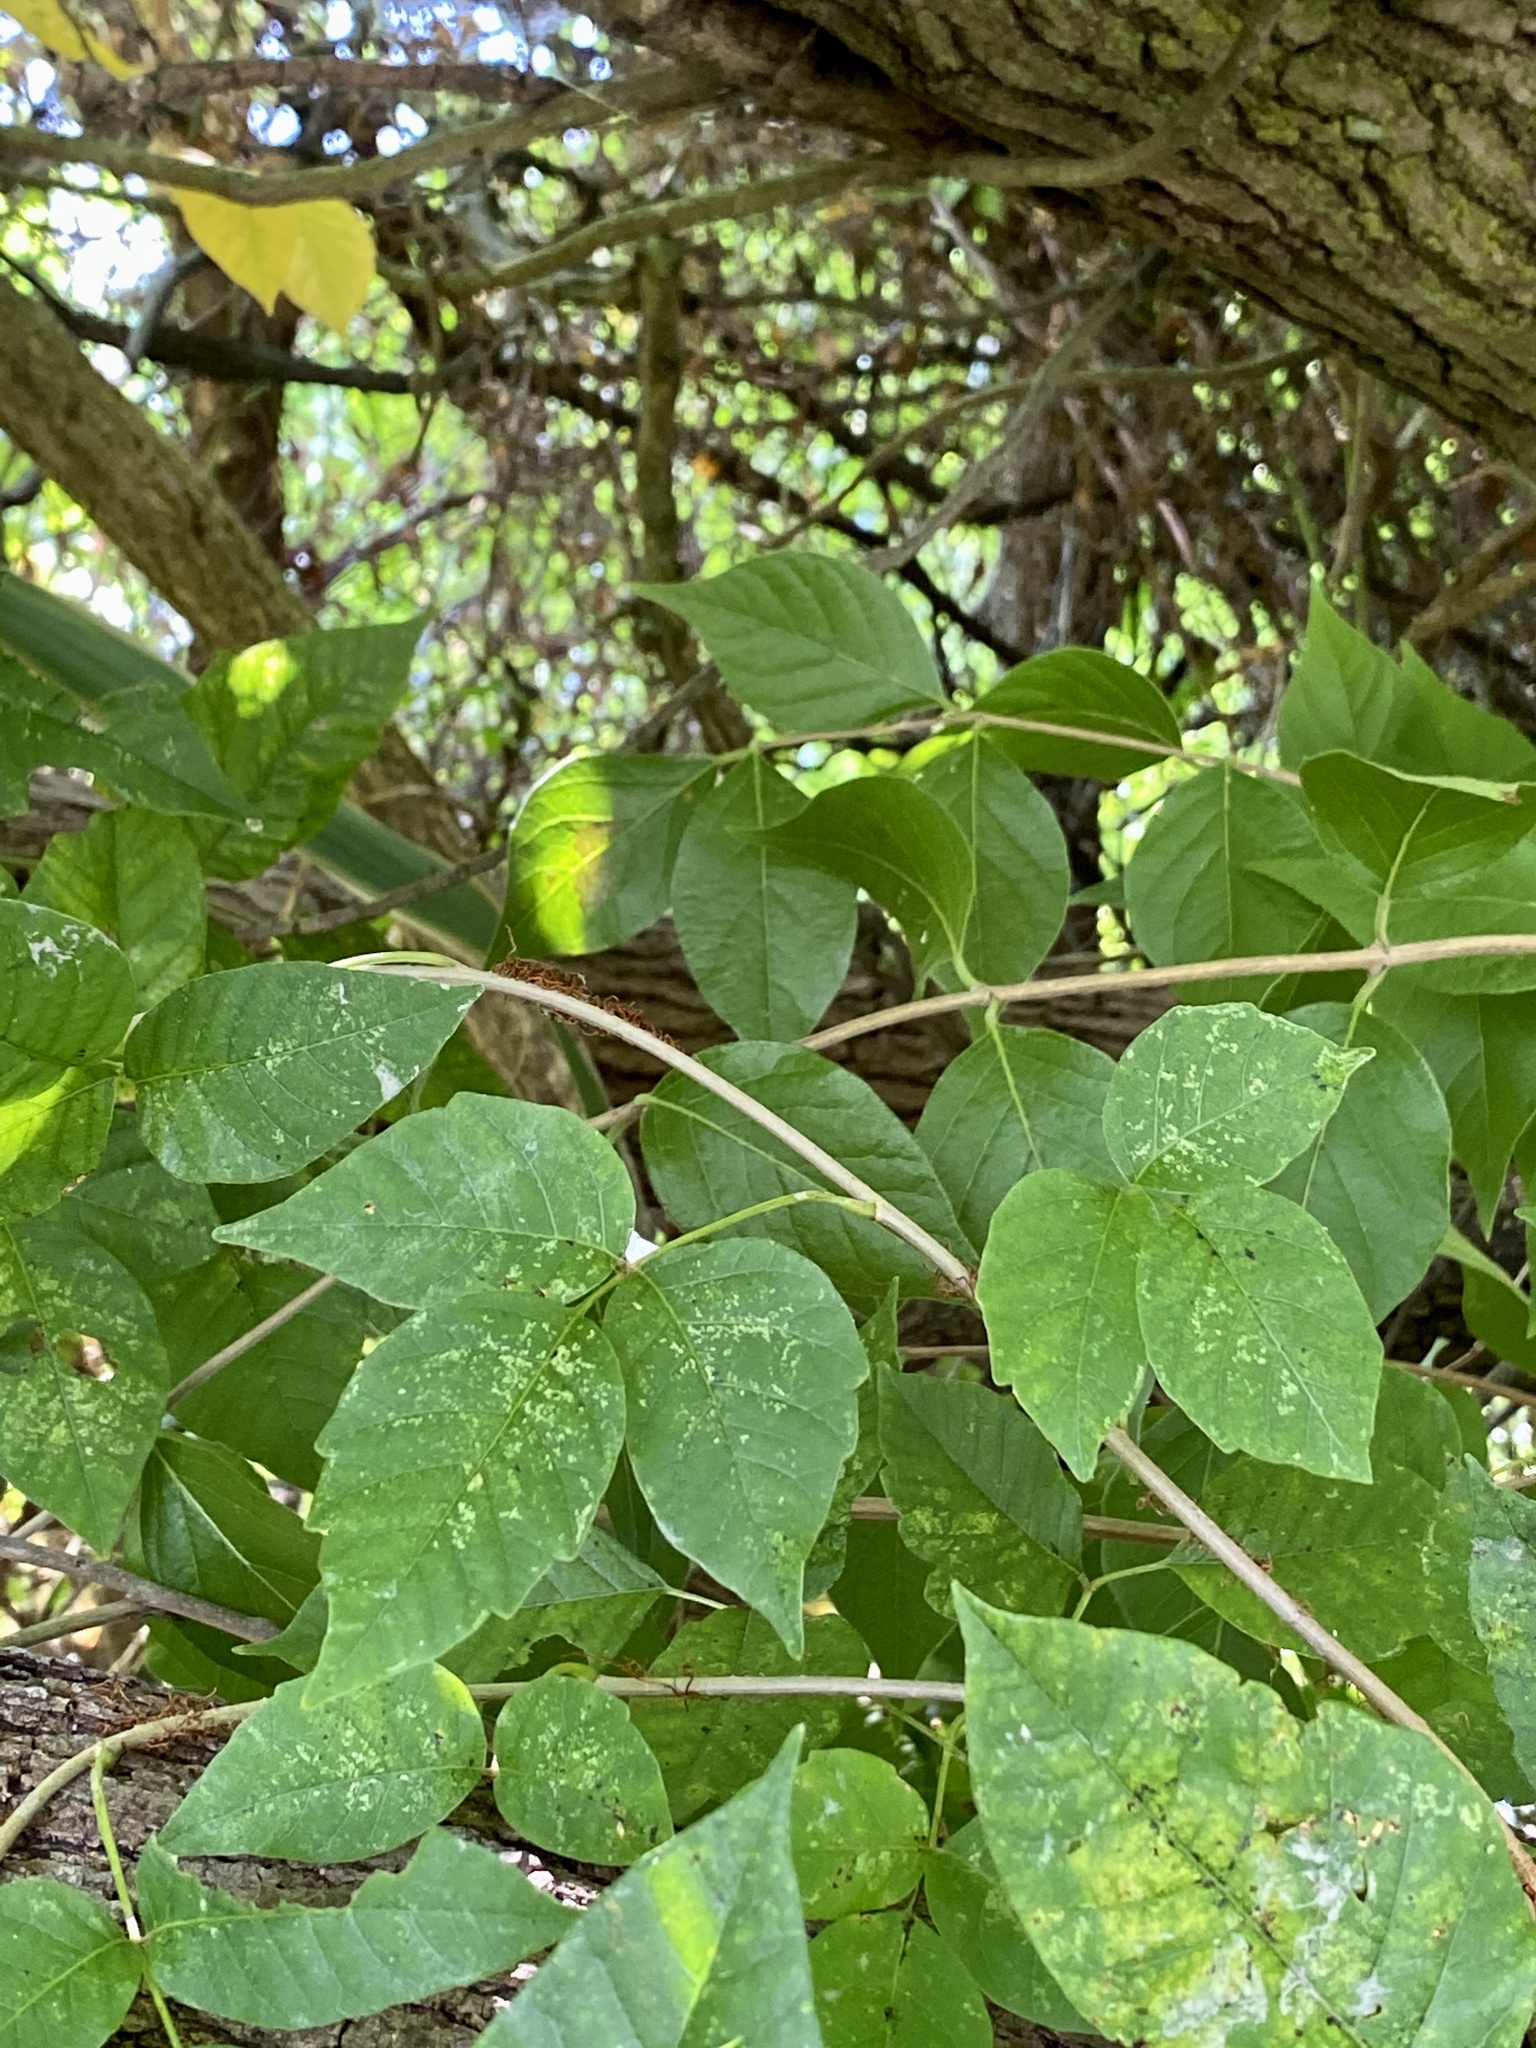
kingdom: Plantae
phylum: Tracheophyta
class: Magnoliopsida
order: Sapindales
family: Anacardiaceae
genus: Toxicodendron
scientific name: Toxicodendron radicans
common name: Poison ivy
